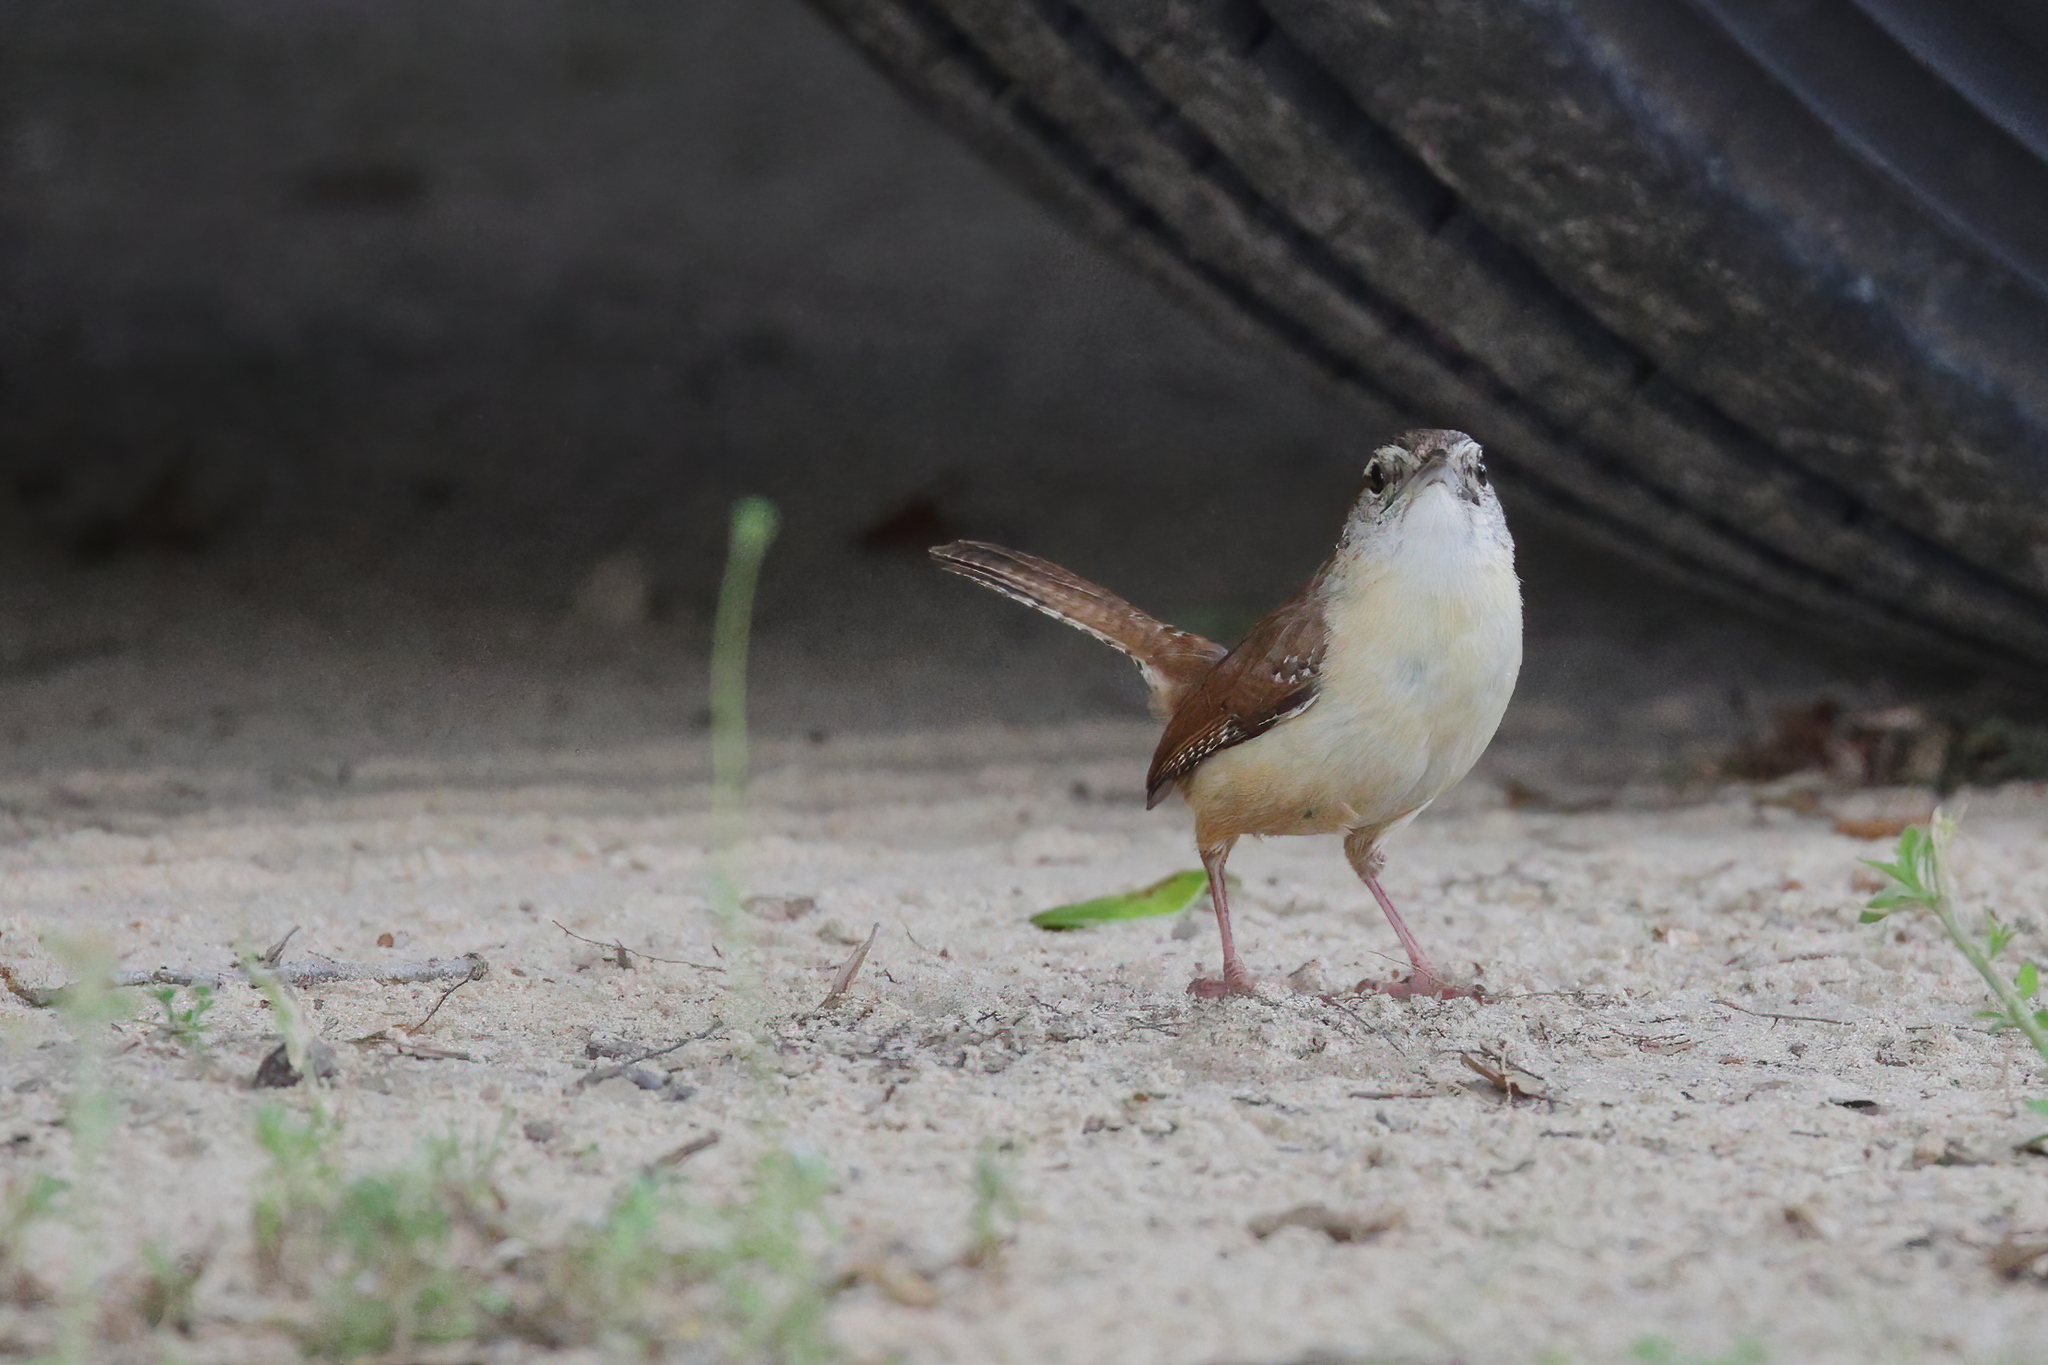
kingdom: Animalia
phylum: Chordata
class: Aves
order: Passeriformes
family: Troglodytidae
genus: Thryothorus
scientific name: Thryothorus ludovicianus
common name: Carolina wren
